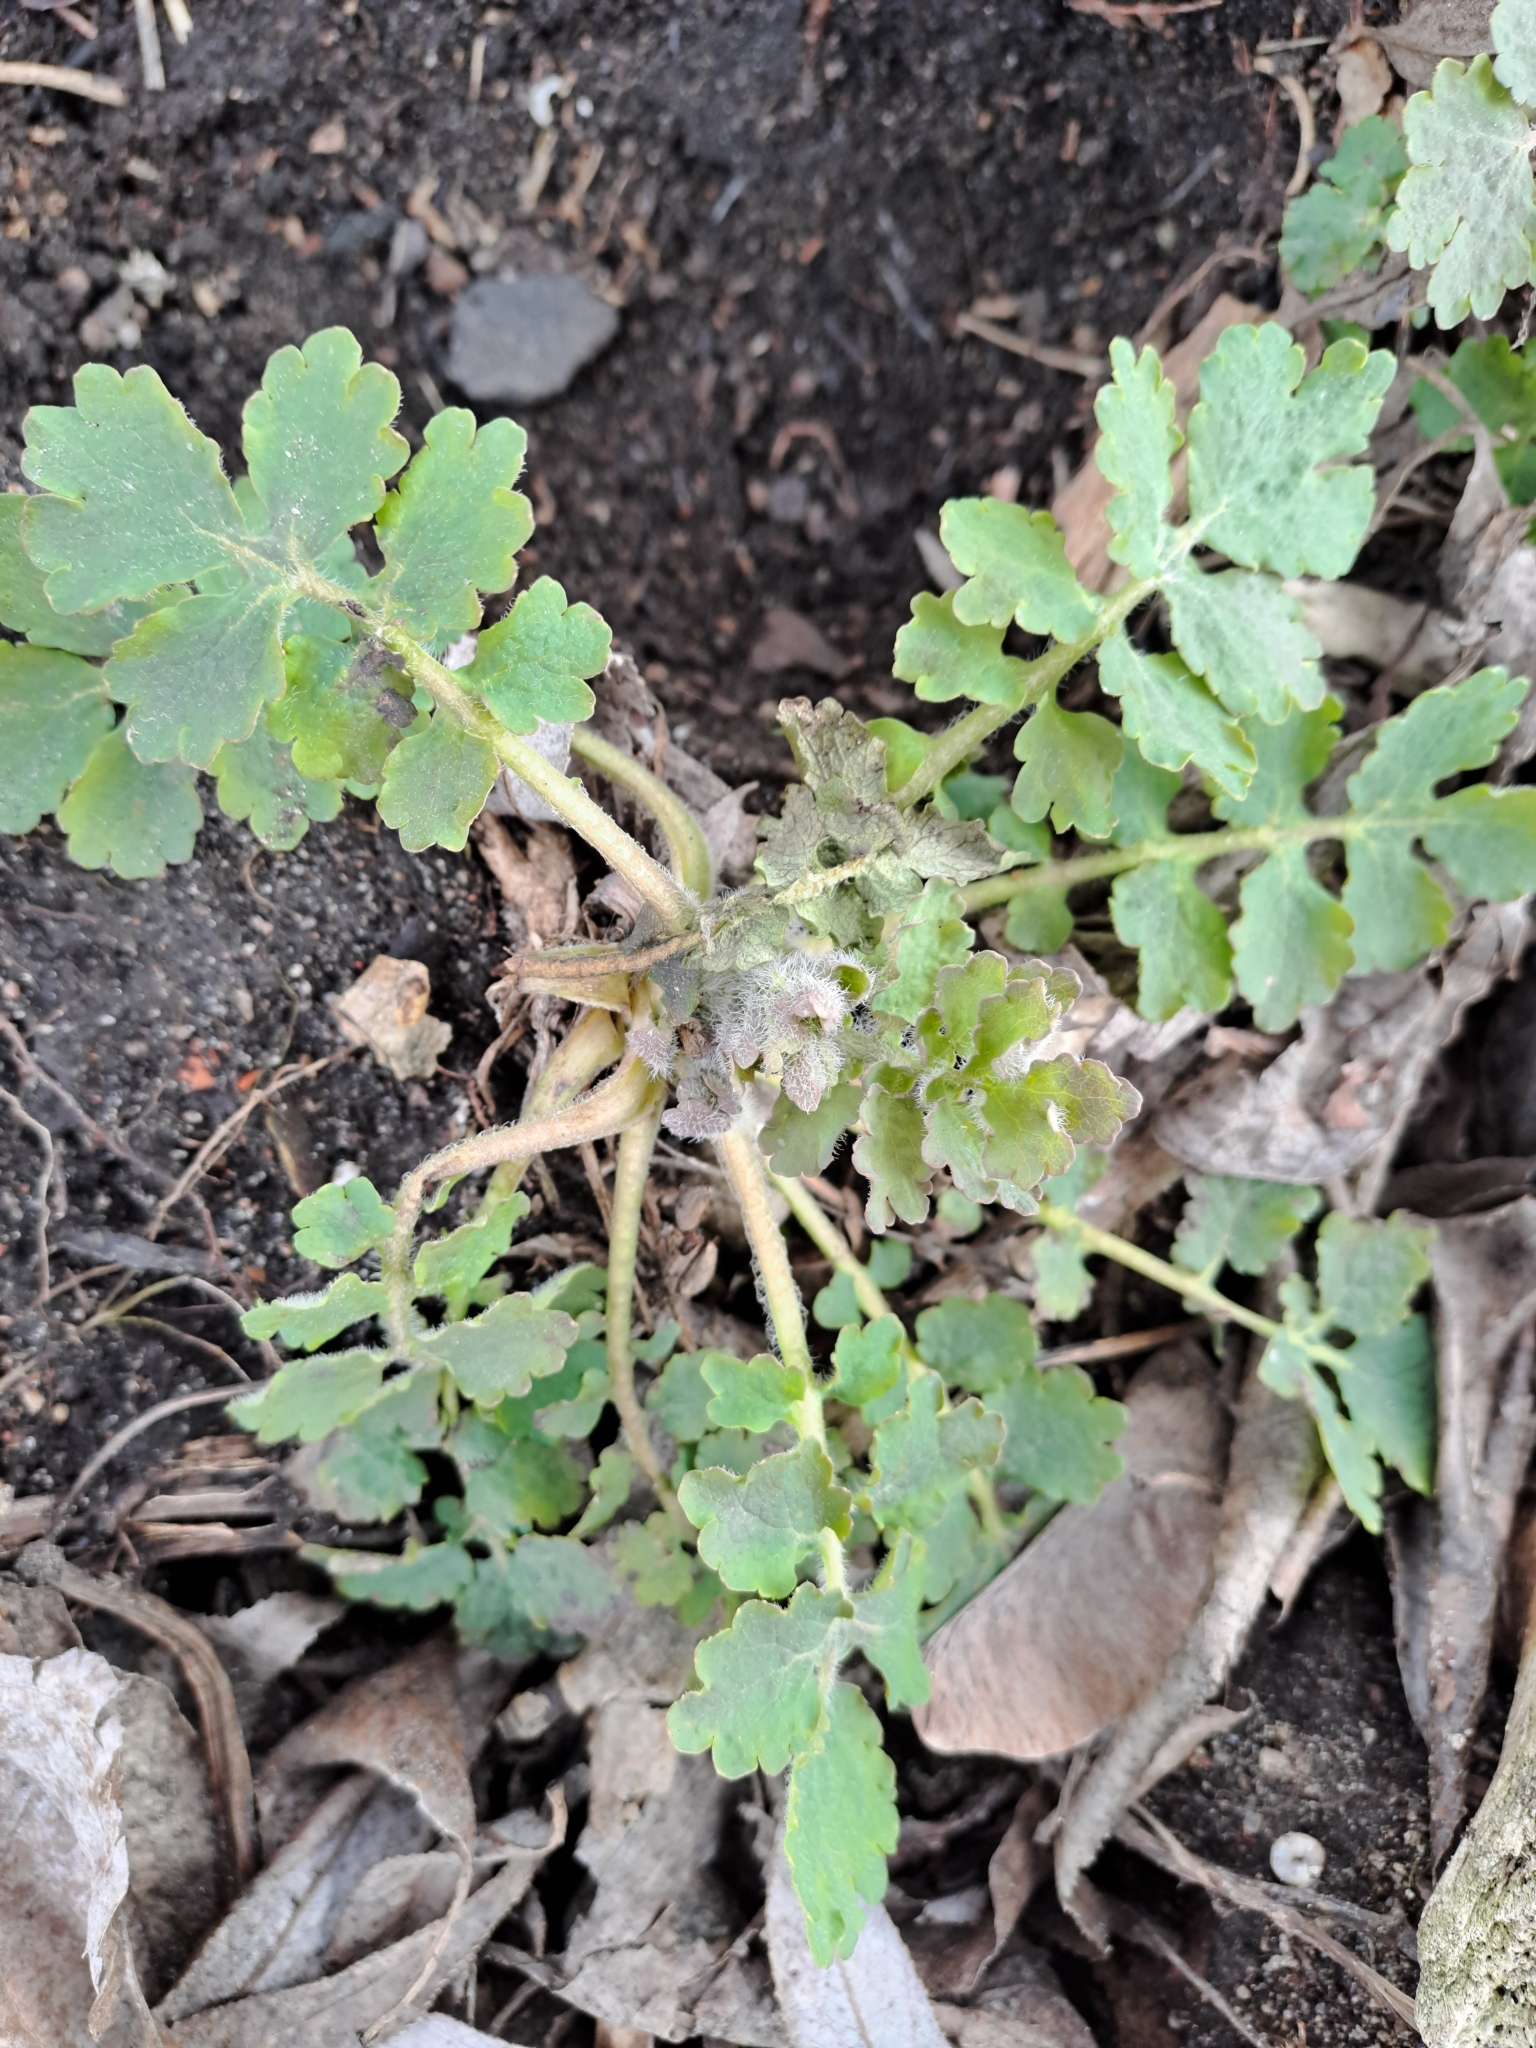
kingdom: Plantae
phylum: Tracheophyta
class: Magnoliopsida
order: Ranunculales
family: Papaveraceae
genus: Chelidonium
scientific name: Chelidonium majus
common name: Greater celandine
